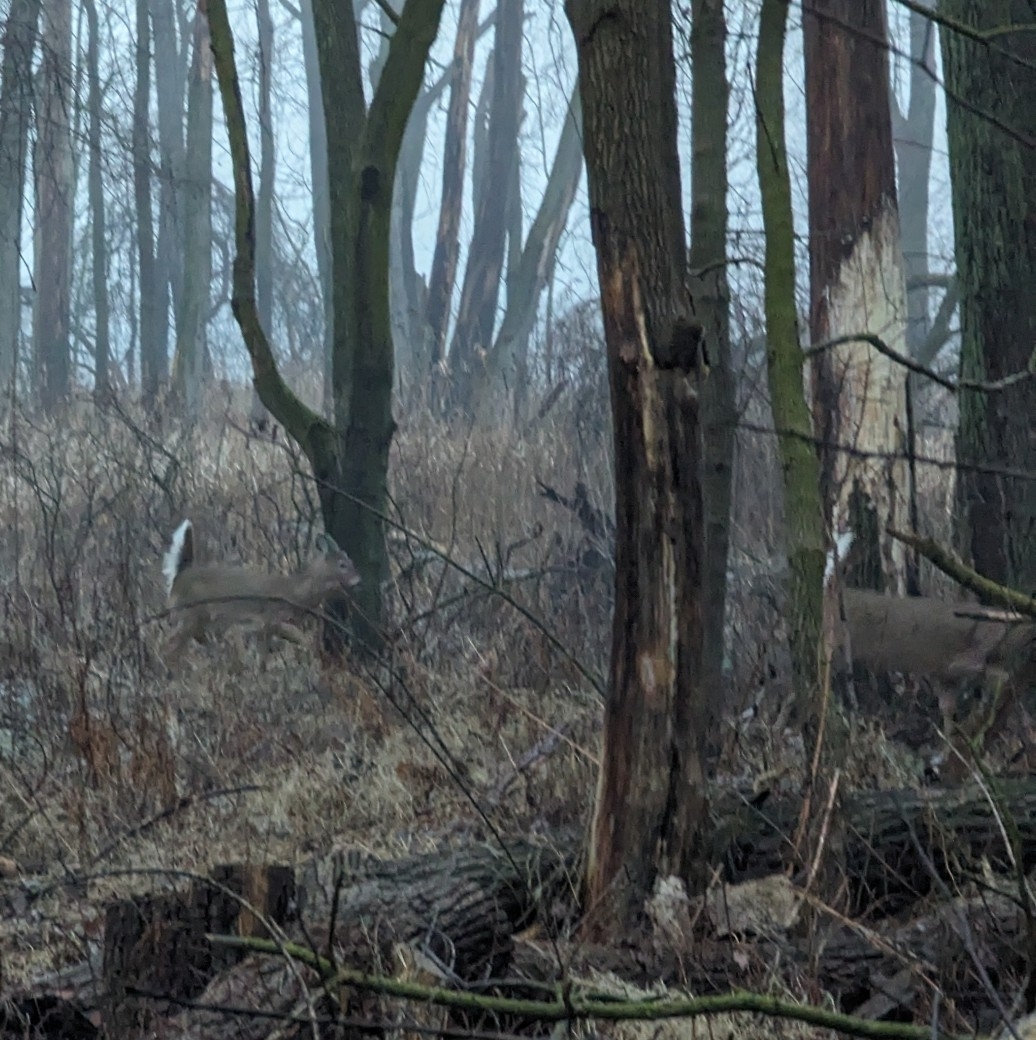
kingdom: Animalia
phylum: Chordata
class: Mammalia
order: Artiodactyla
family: Cervidae
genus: Odocoileus
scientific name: Odocoileus virginianus
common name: White-tailed deer
